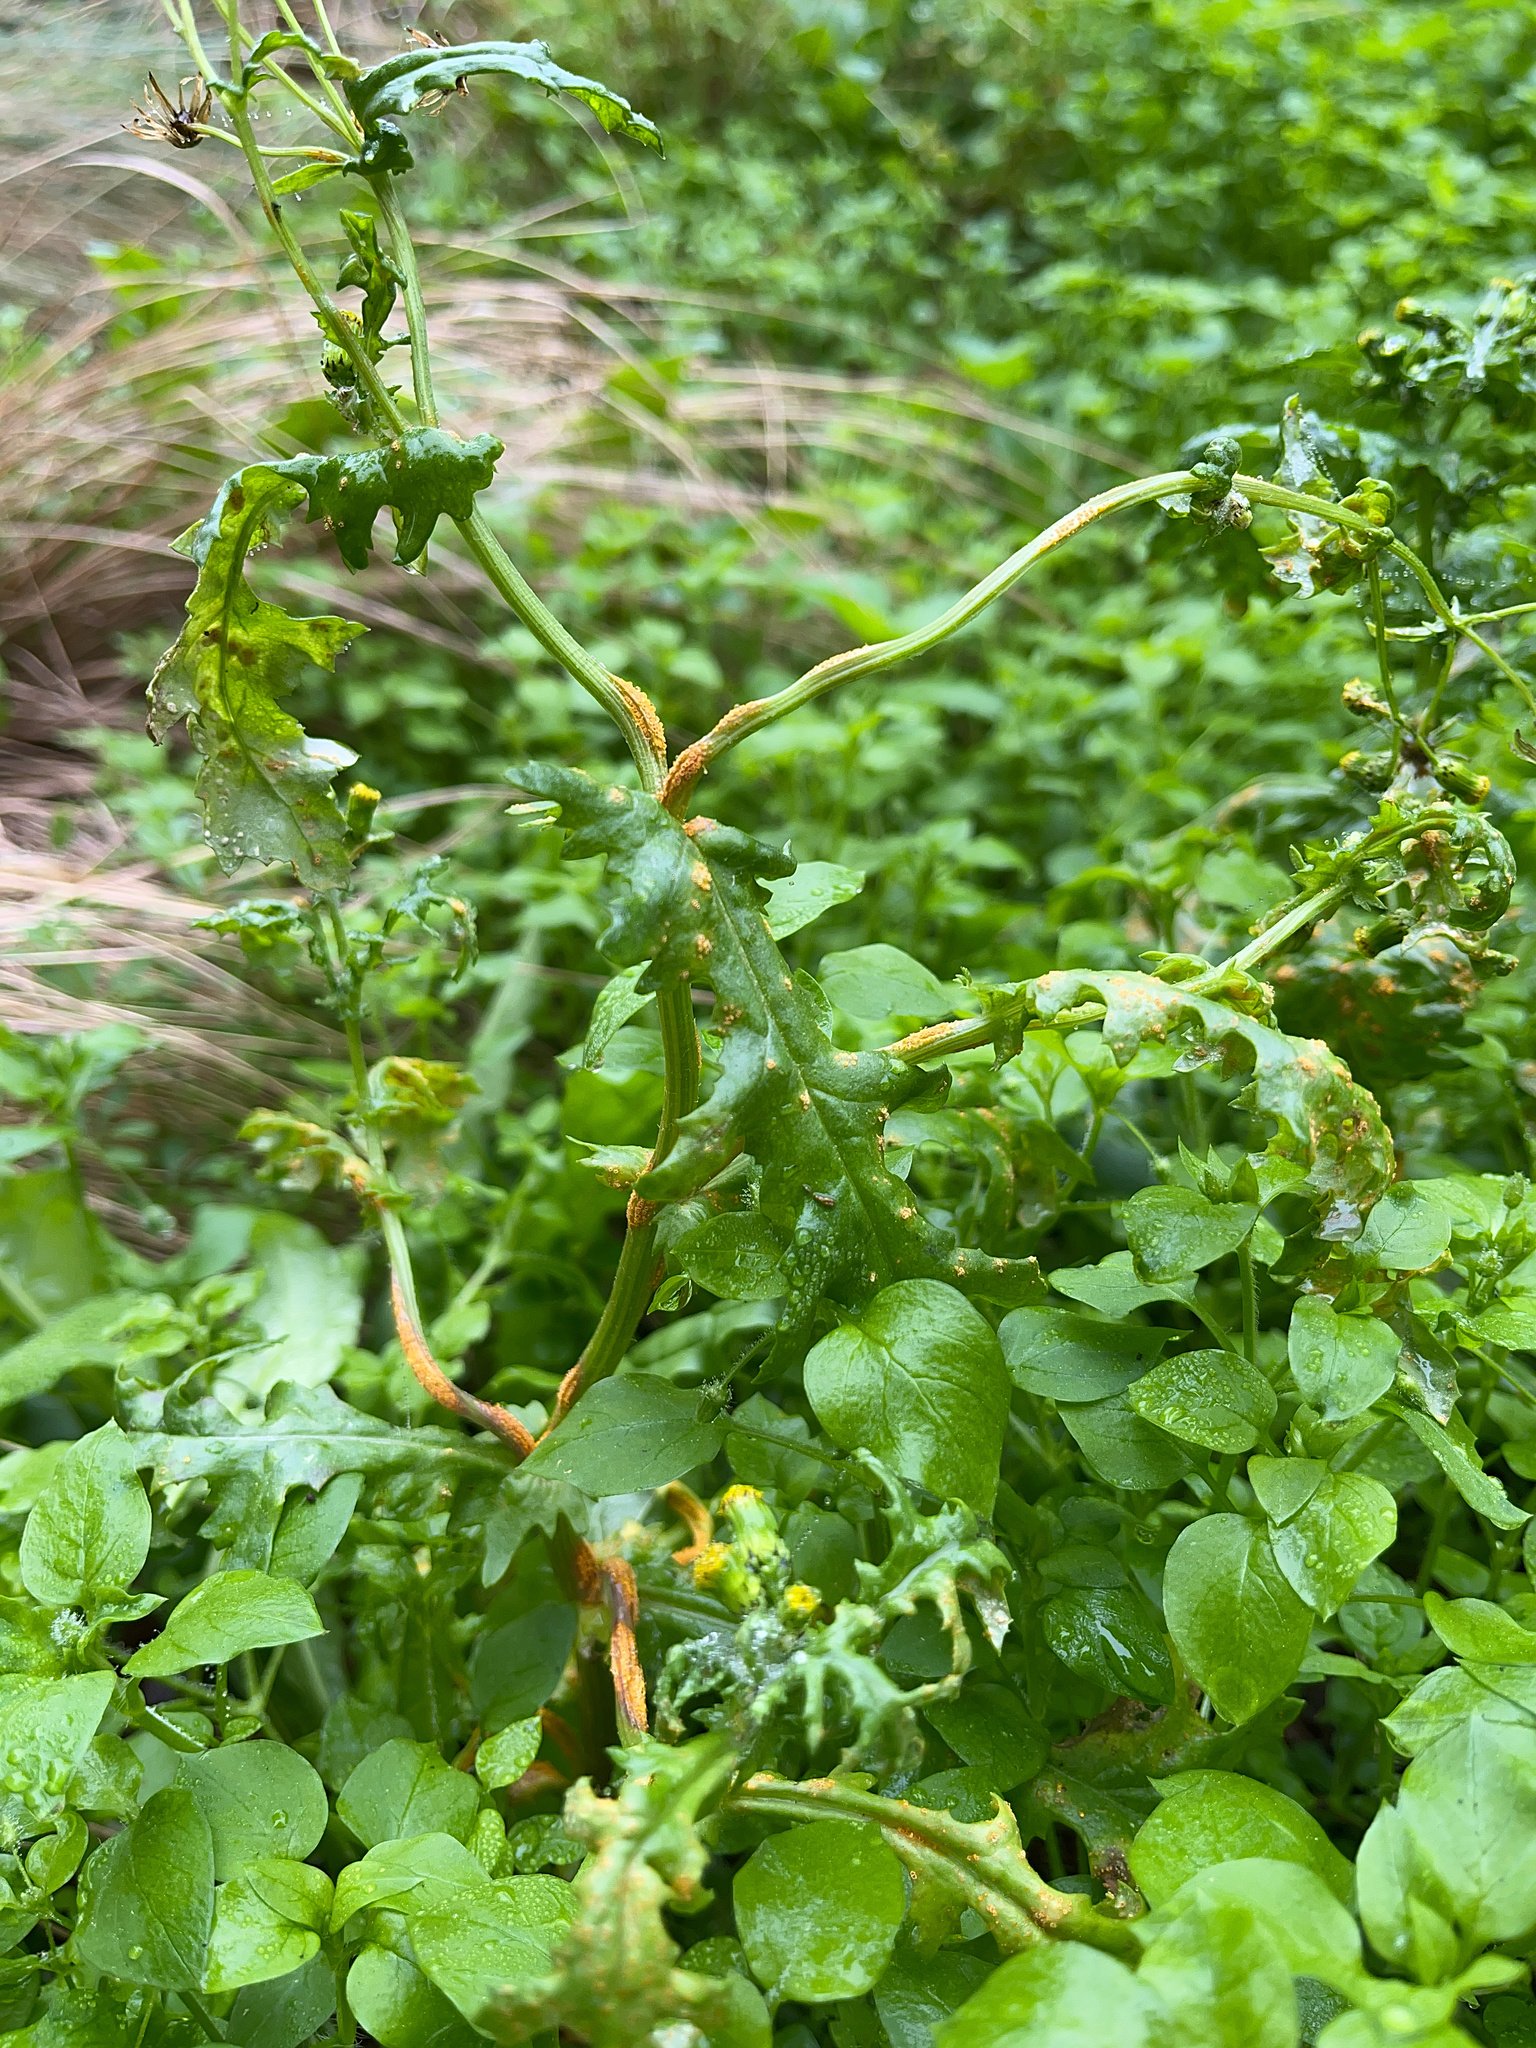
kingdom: Fungi
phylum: Basidiomycota
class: Pucciniomycetes
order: Pucciniales
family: Pucciniaceae
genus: Puccinia
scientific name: Puccinia lagenophorae
